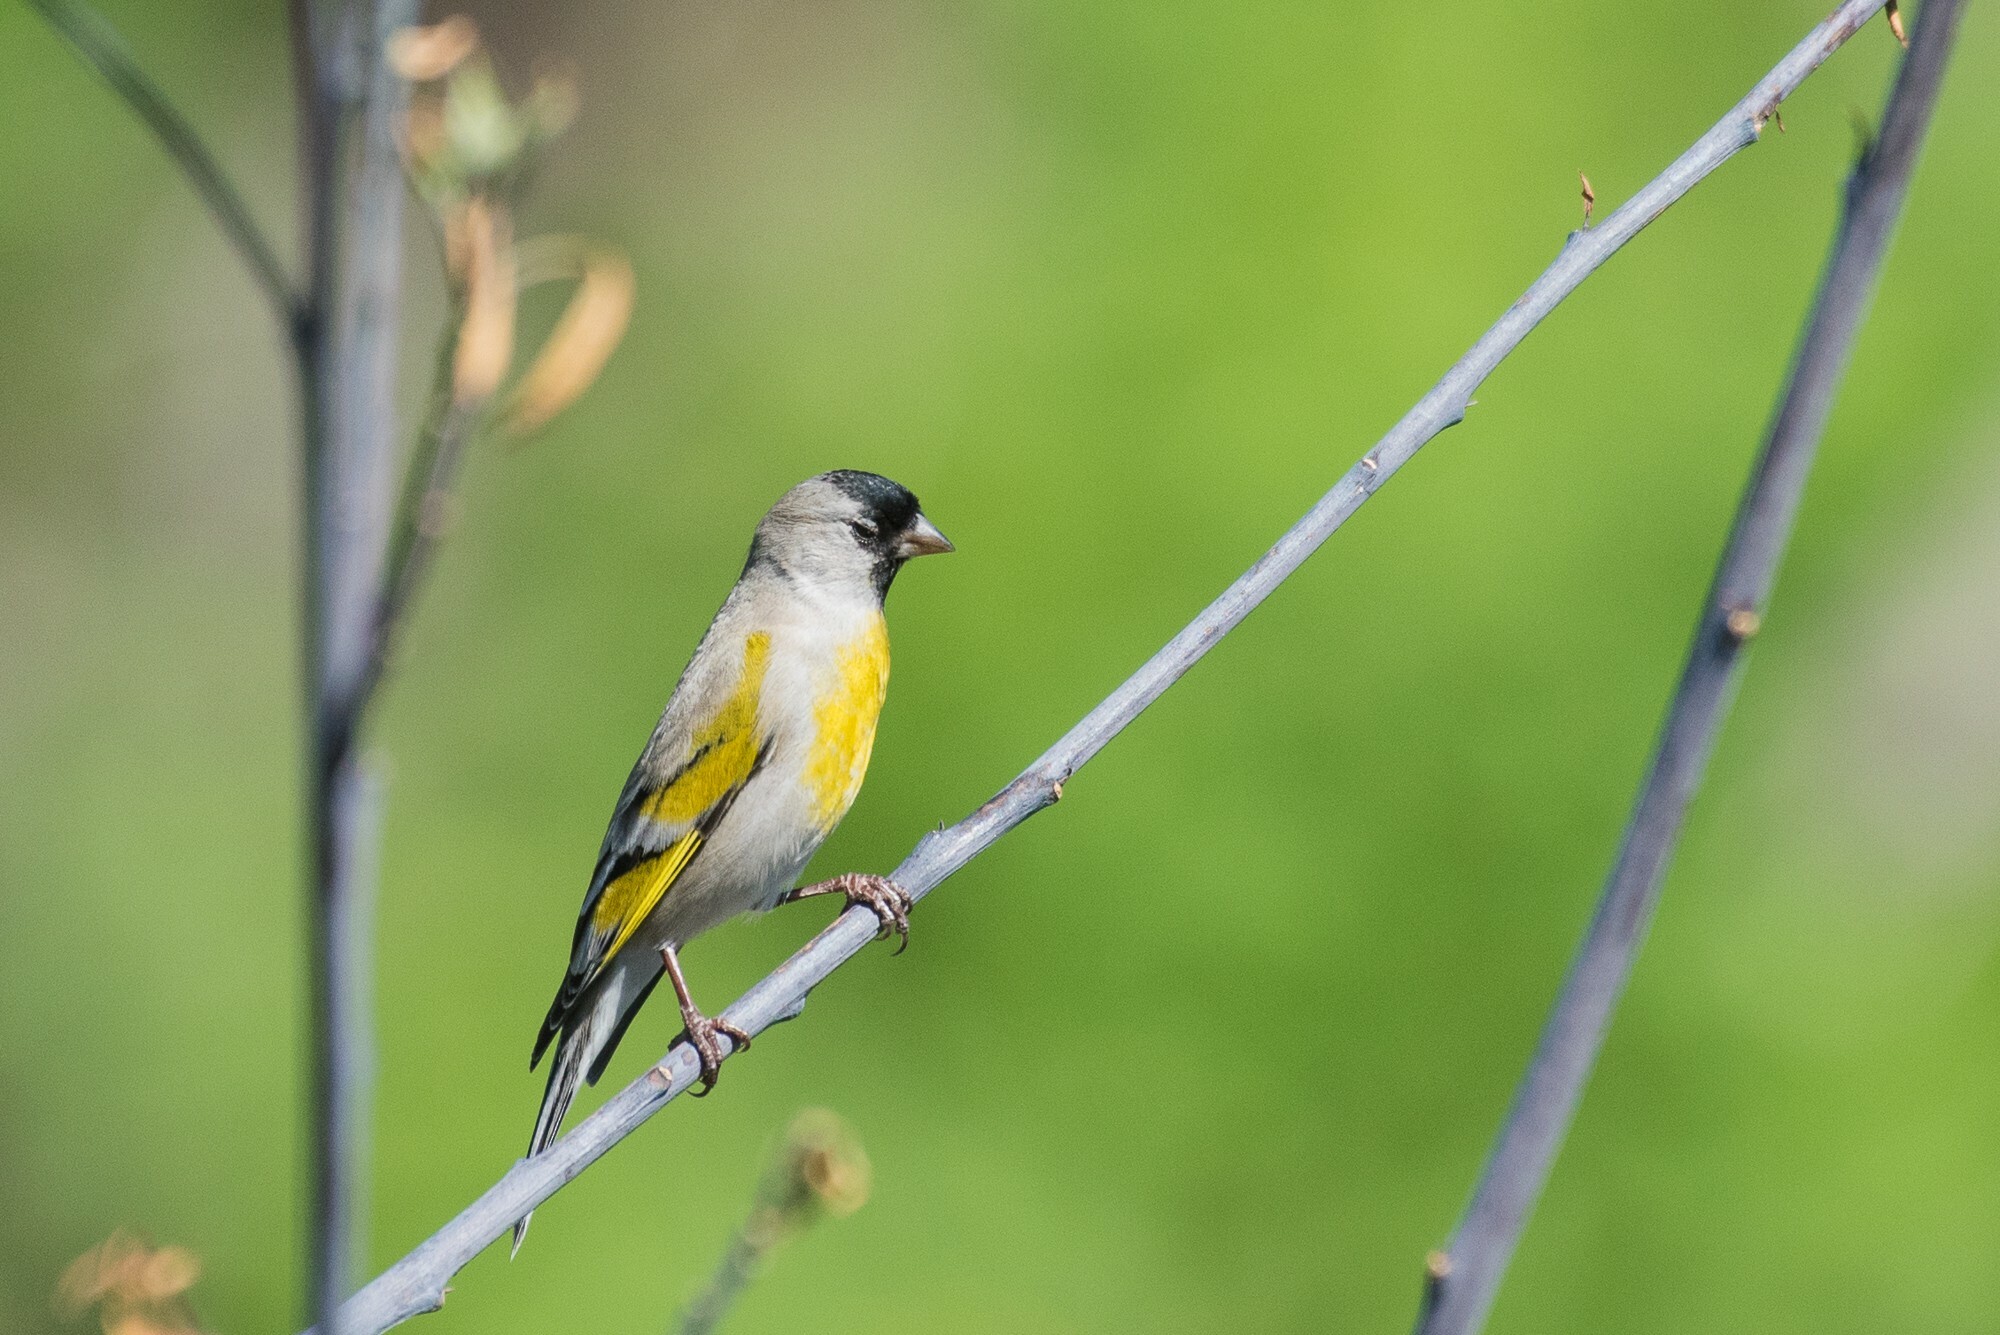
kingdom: Animalia
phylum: Chordata
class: Aves
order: Passeriformes
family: Fringillidae
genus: Spinus
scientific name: Spinus lawrencei
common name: Lawrence's goldfinch
